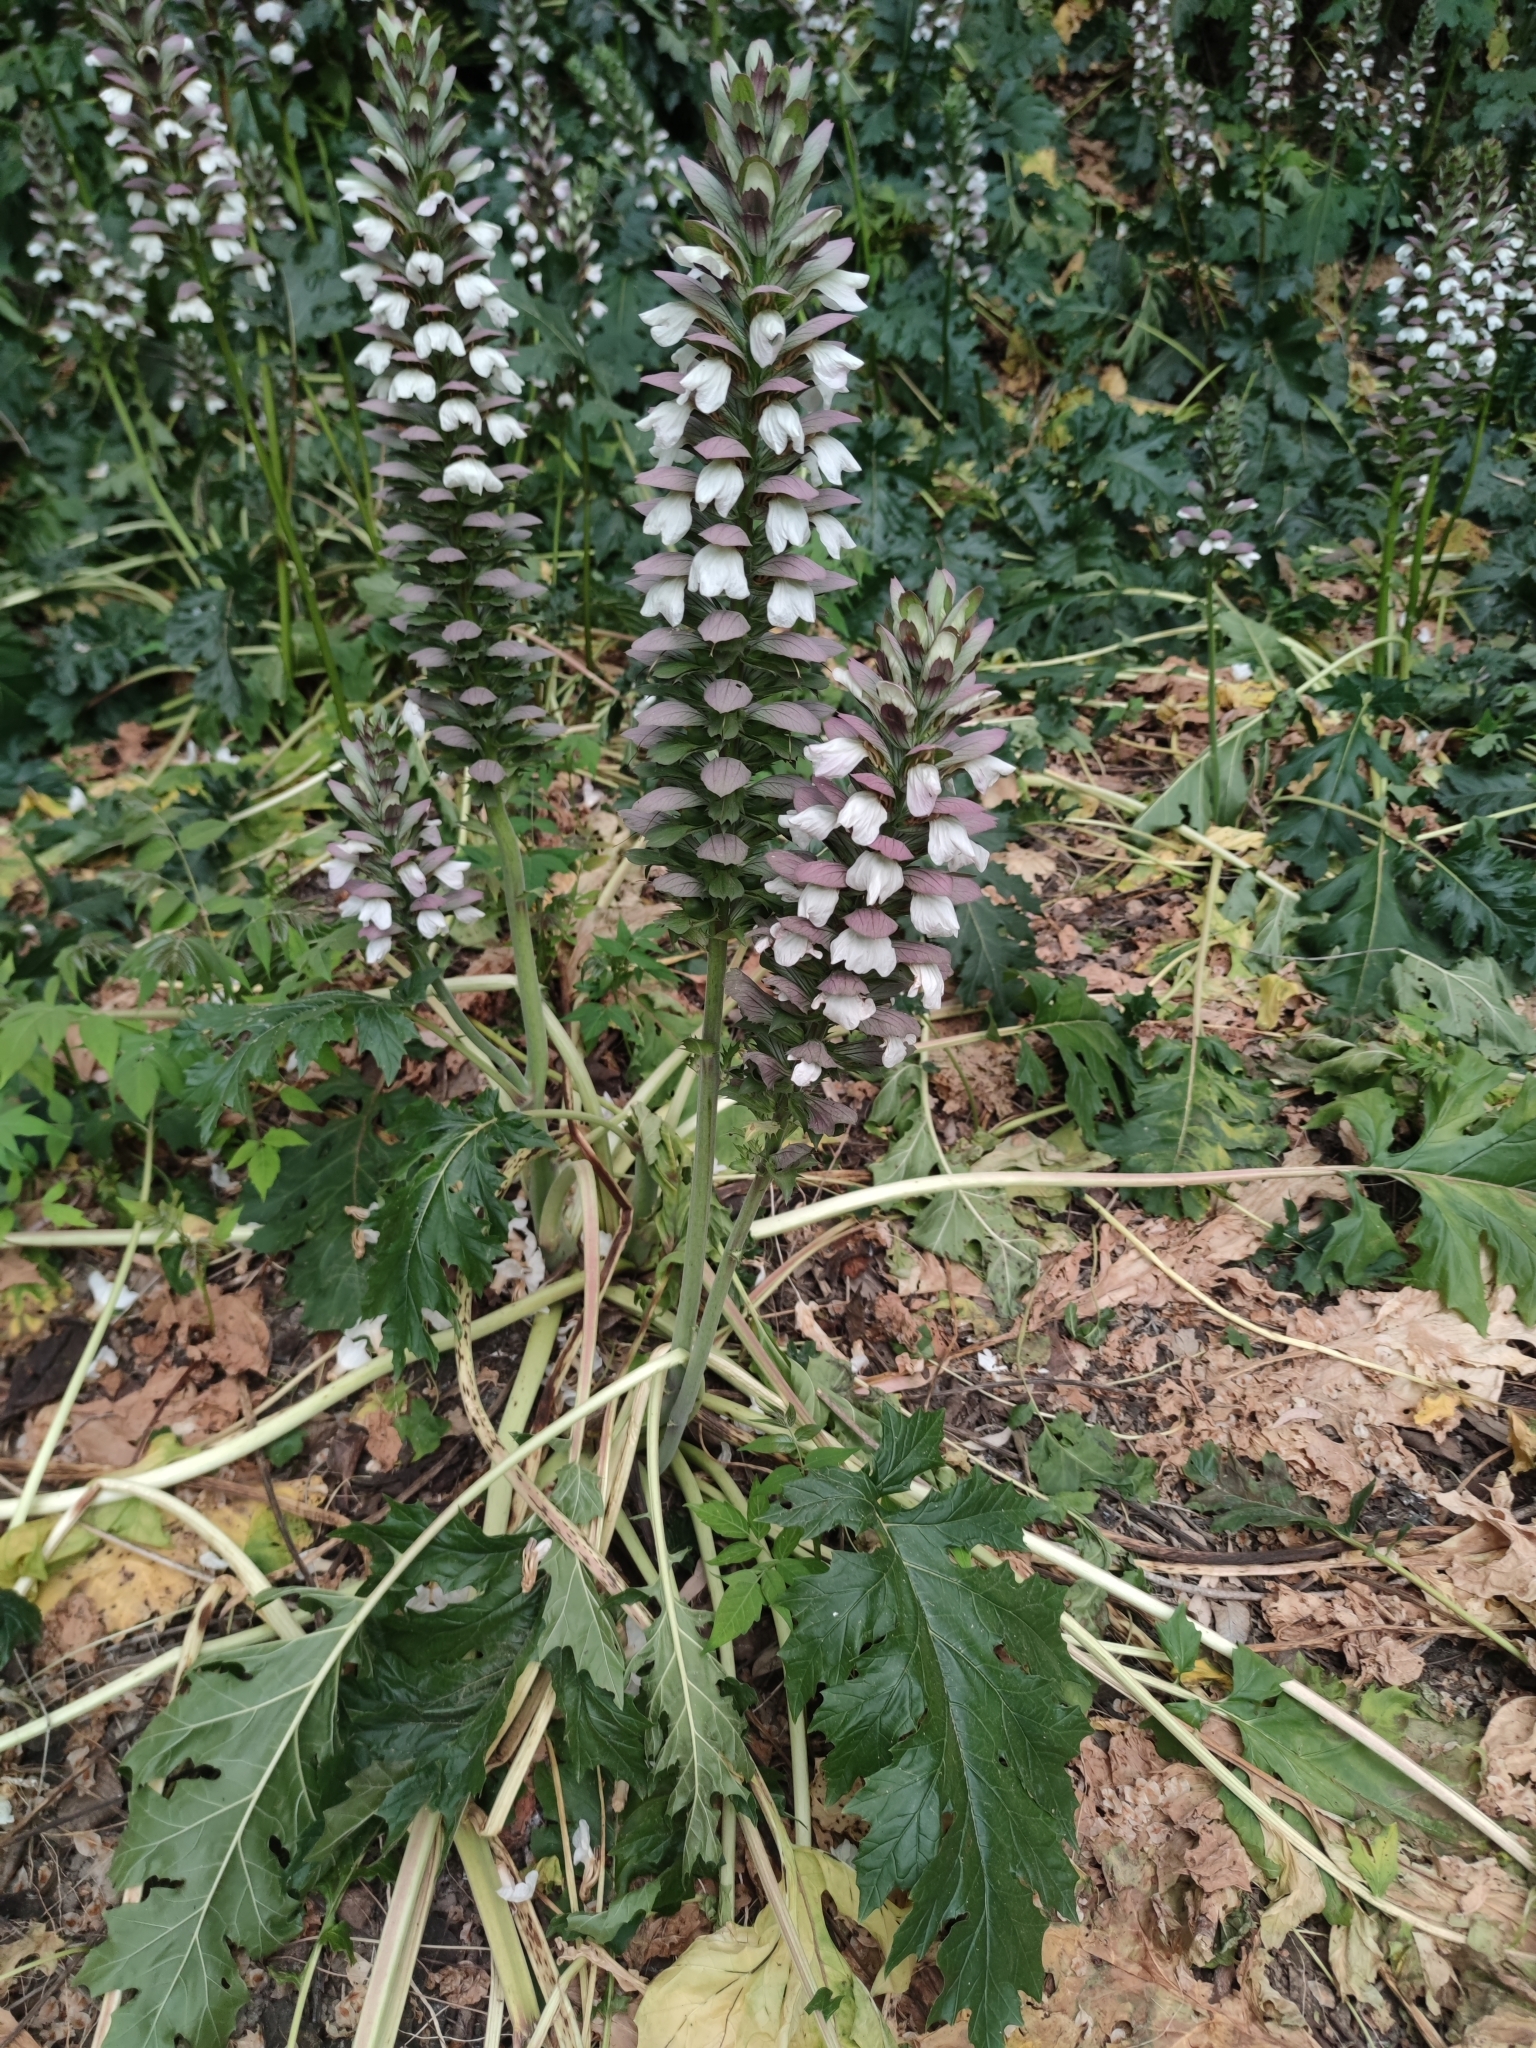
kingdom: Plantae
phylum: Tracheophyta
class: Magnoliopsida
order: Lamiales
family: Acanthaceae
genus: Acanthus
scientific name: Acanthus mollis
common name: Bear's-breech
